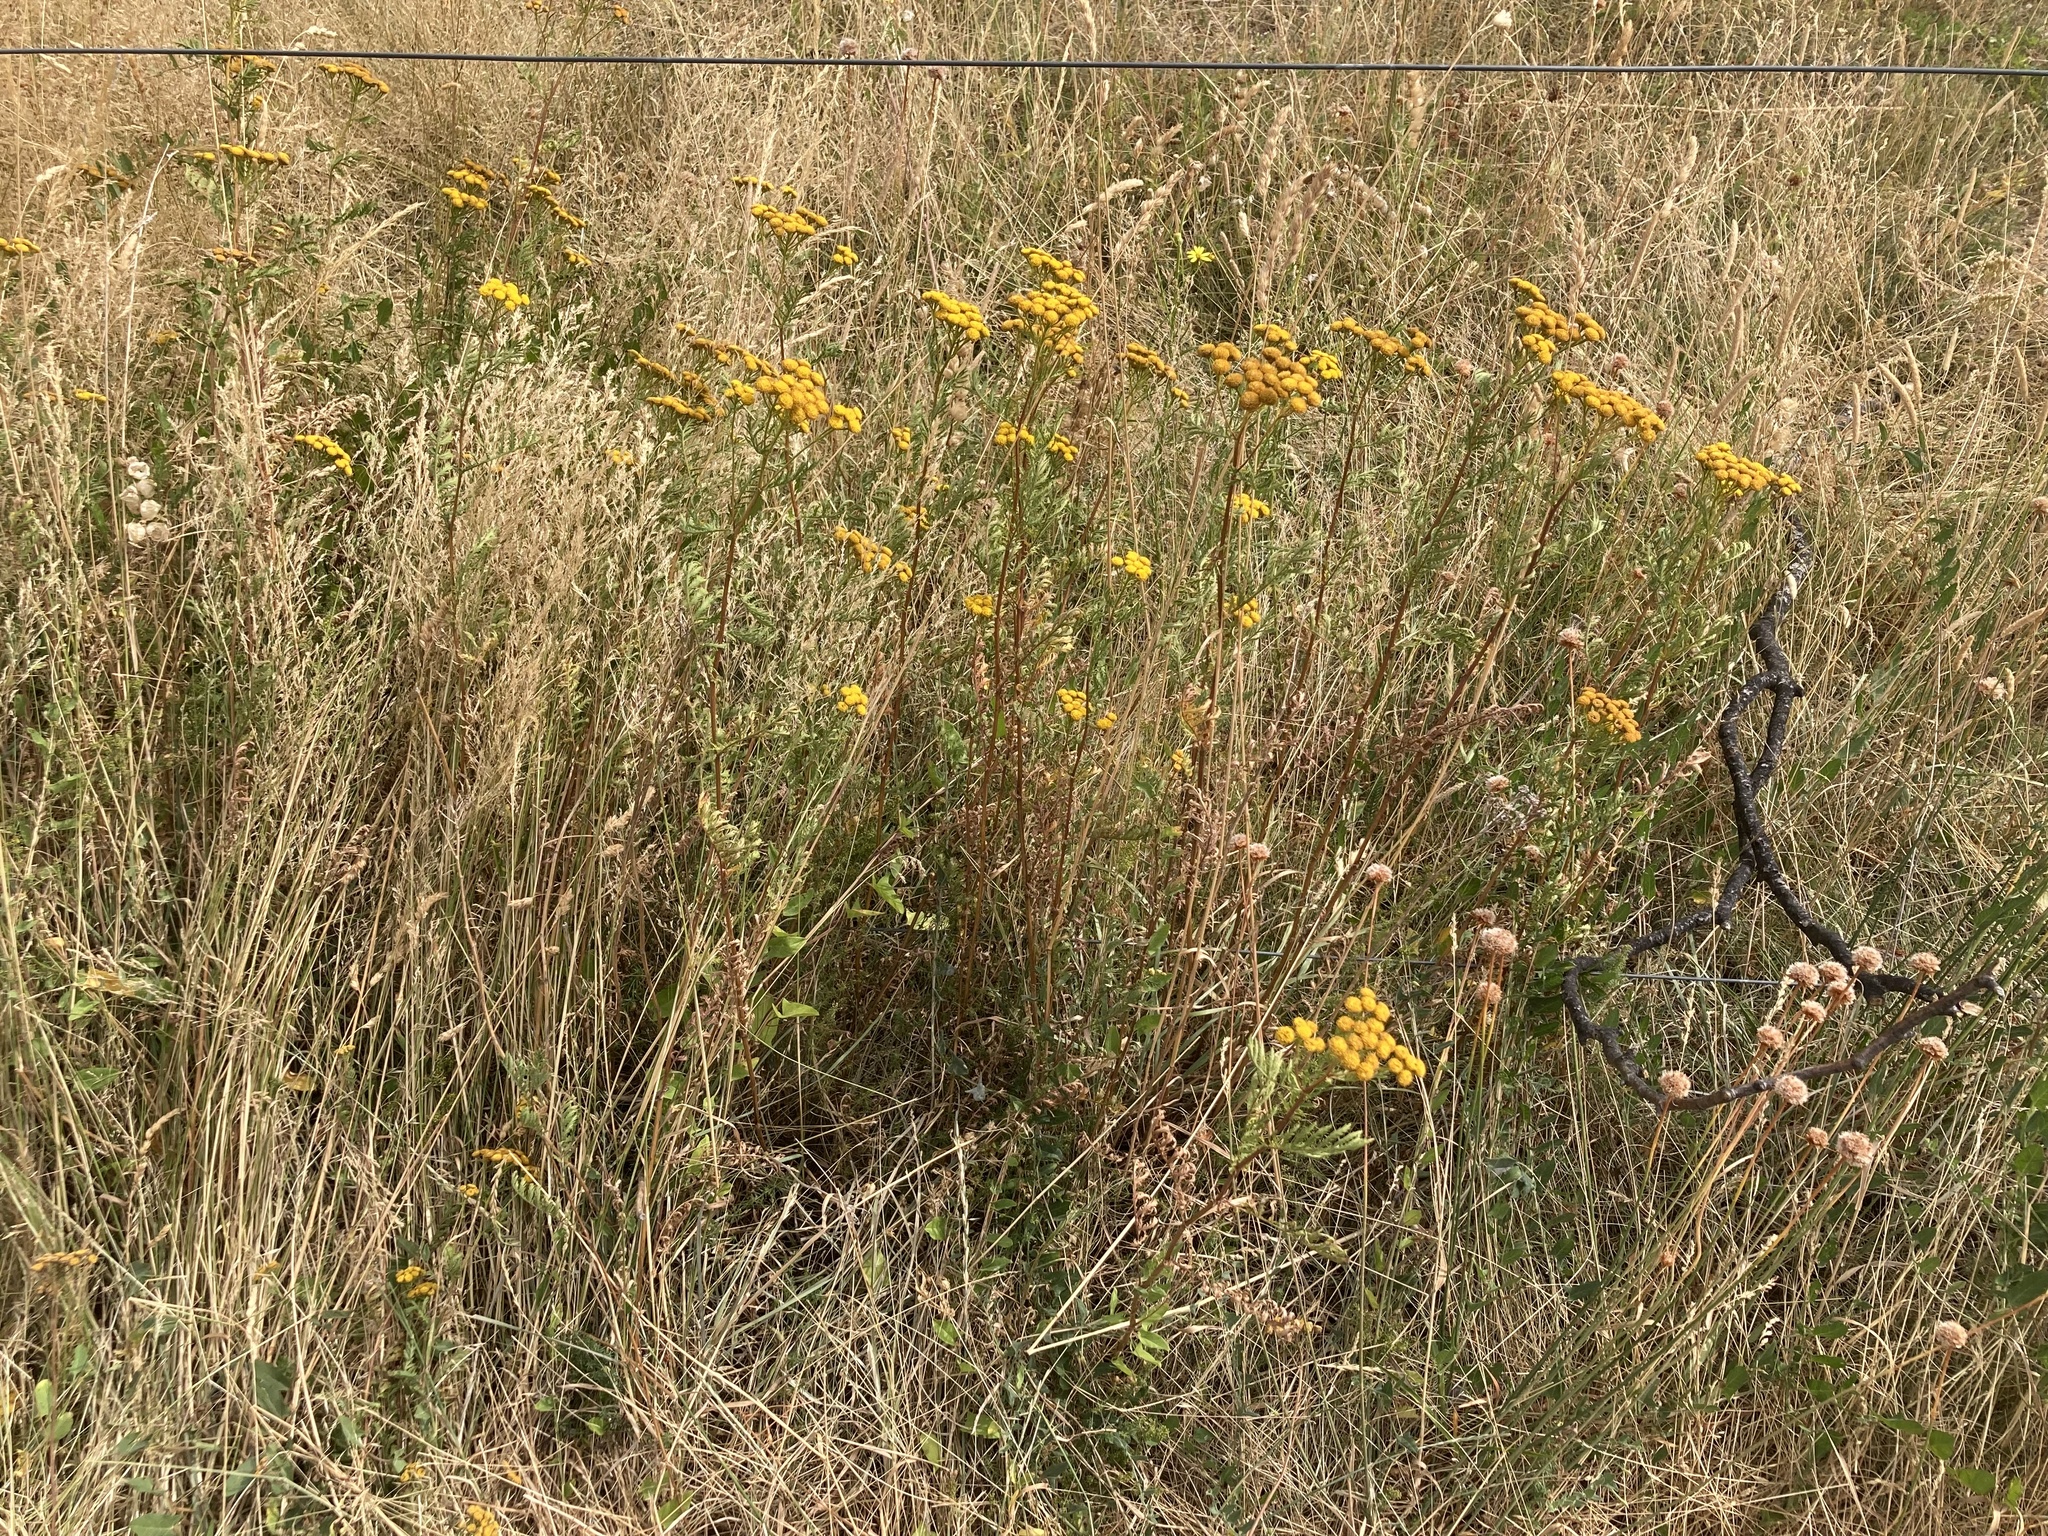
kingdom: Plantae
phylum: Tracheophyta
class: Magnoliopsida
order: Asterales
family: Asteraceae
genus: Tanacetum
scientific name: Tanacetum vulgare
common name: Common tansy
